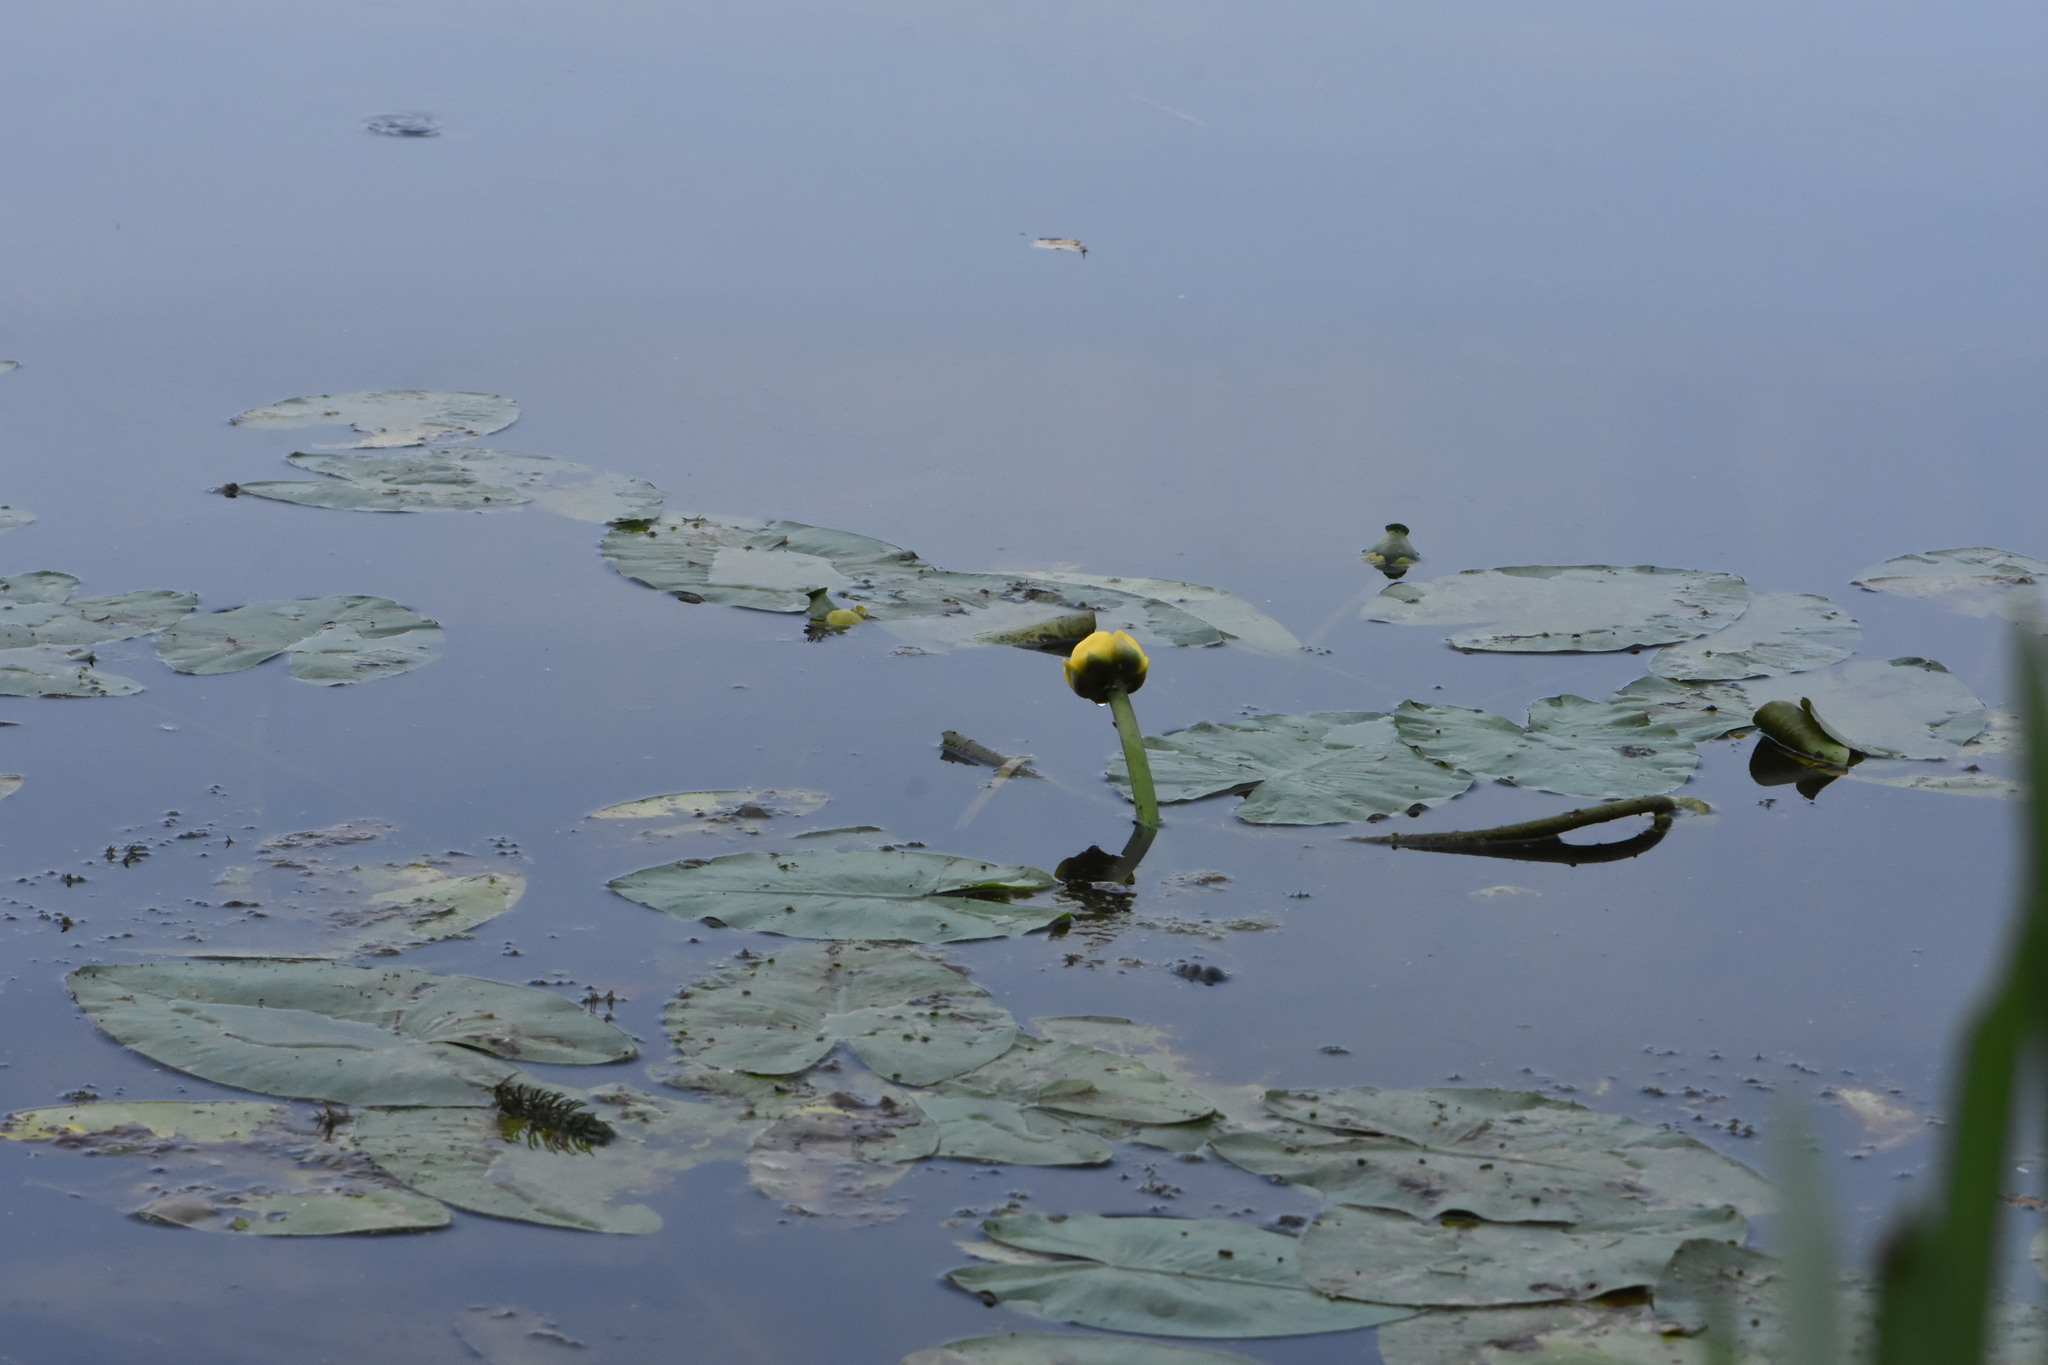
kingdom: Plantae
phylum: Tracheophyta
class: Magnoliopsida
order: Nymphaeales
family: Nymphaeaceae
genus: Nuphar
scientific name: Nuphar lutea
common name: Yellow water-lily
